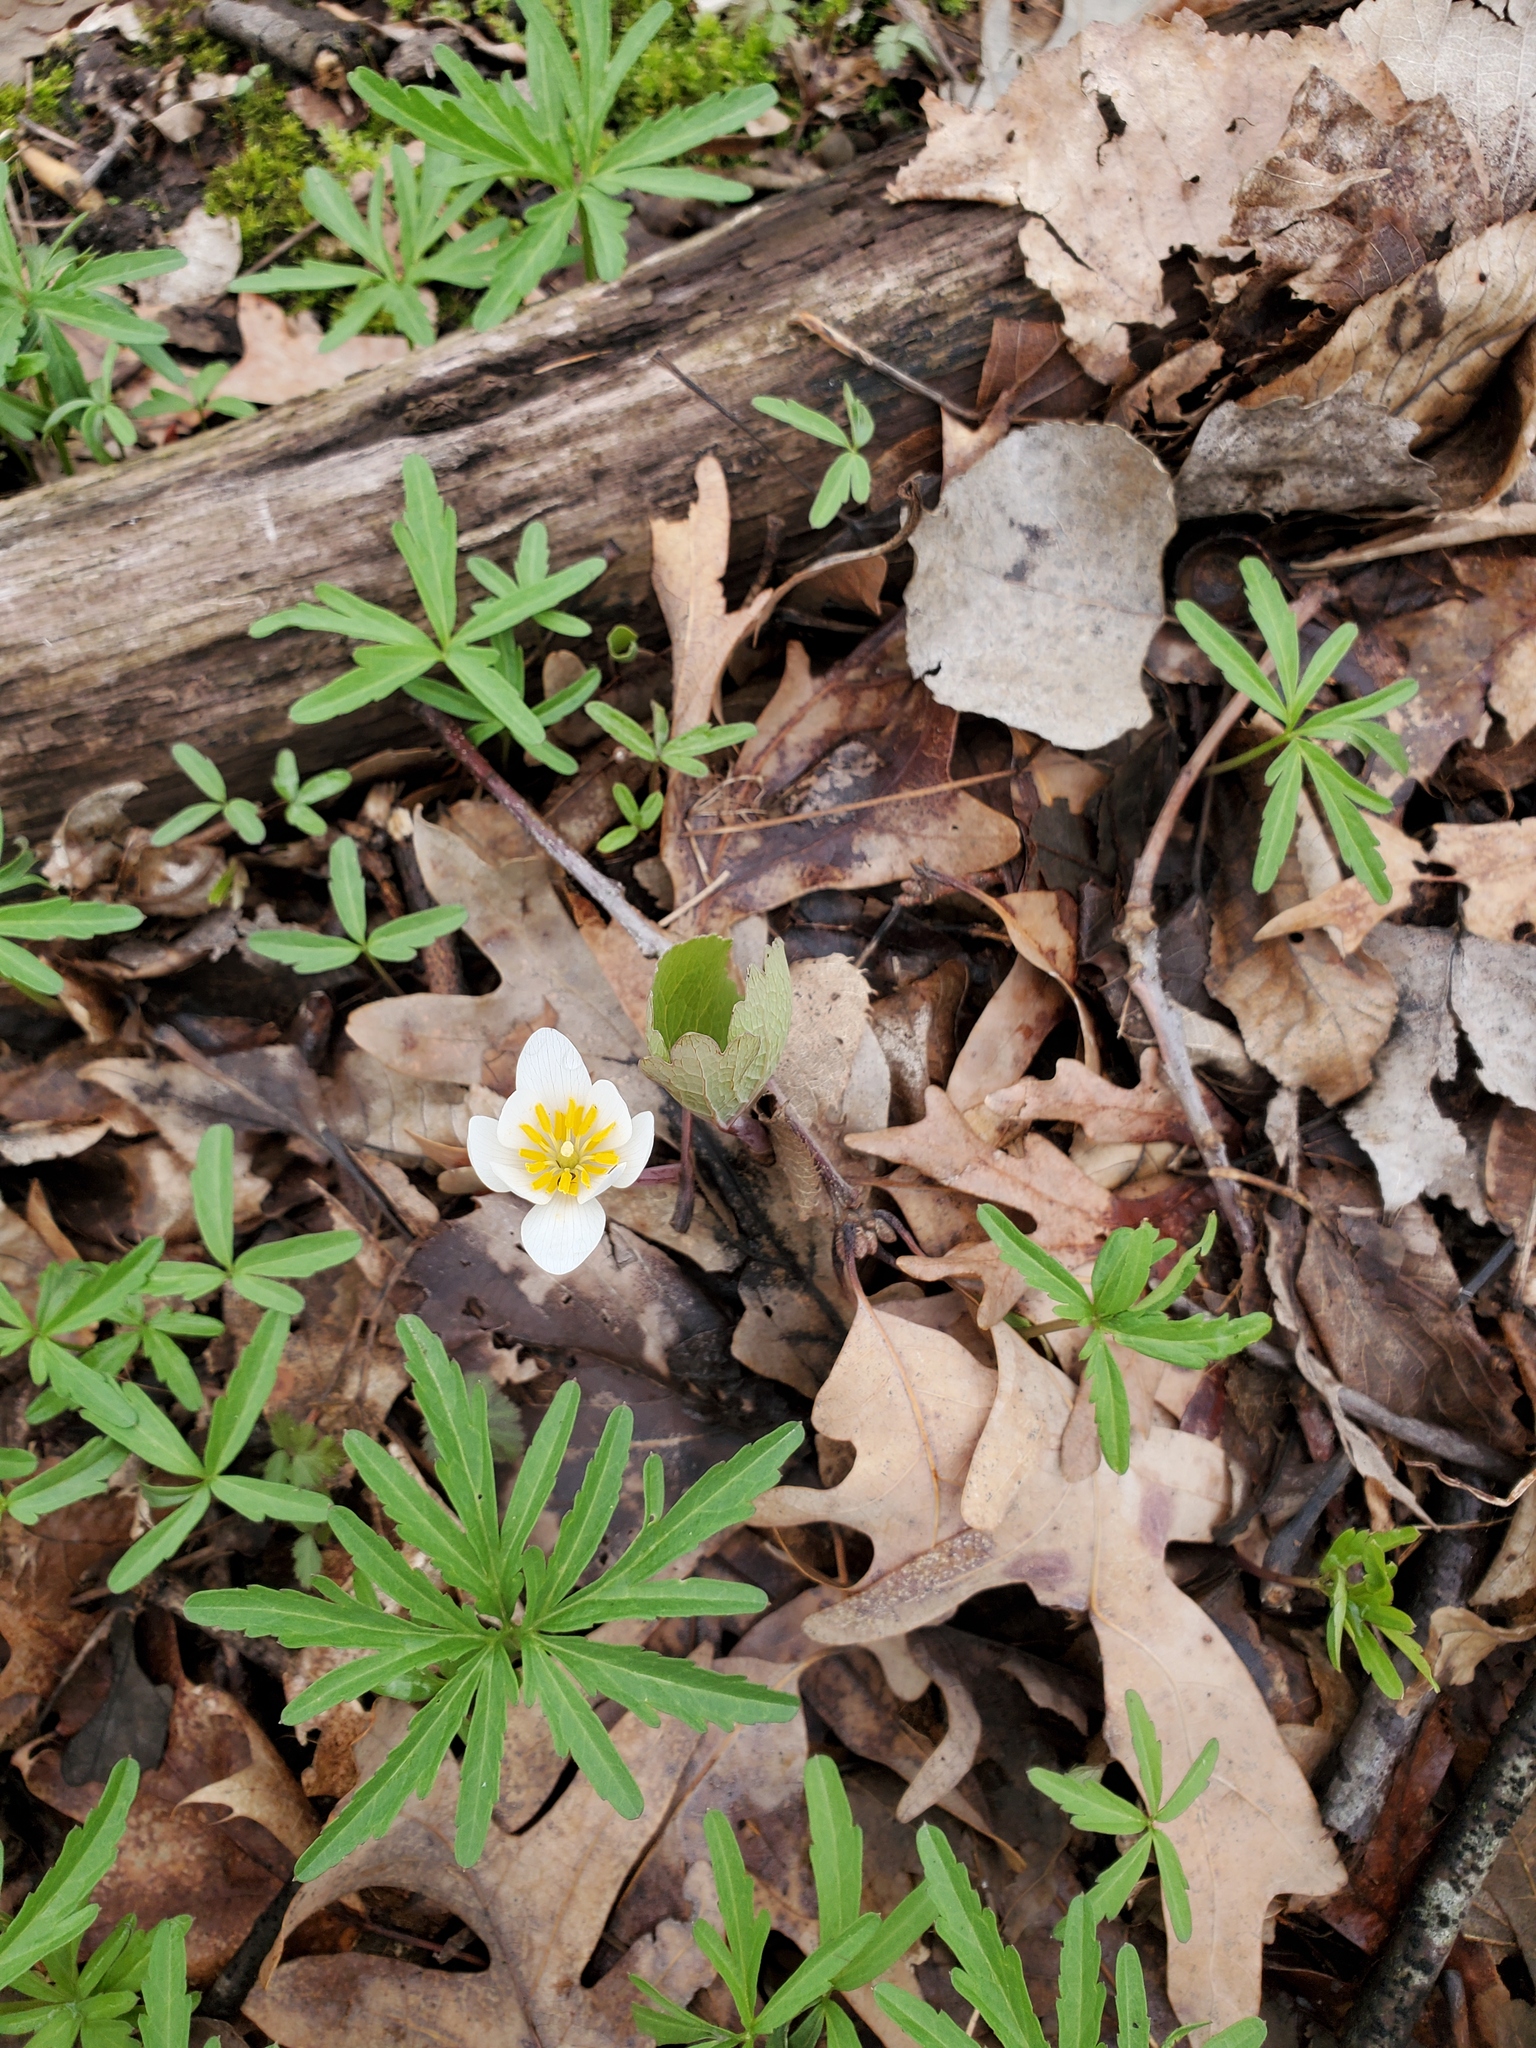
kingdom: Plantae
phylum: Tracheophyta
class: Magnoliopsida
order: Ranunculales
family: Papaveraceae
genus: Sanguinaria
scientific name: Sanguinaria canadensis
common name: Bloodroot
